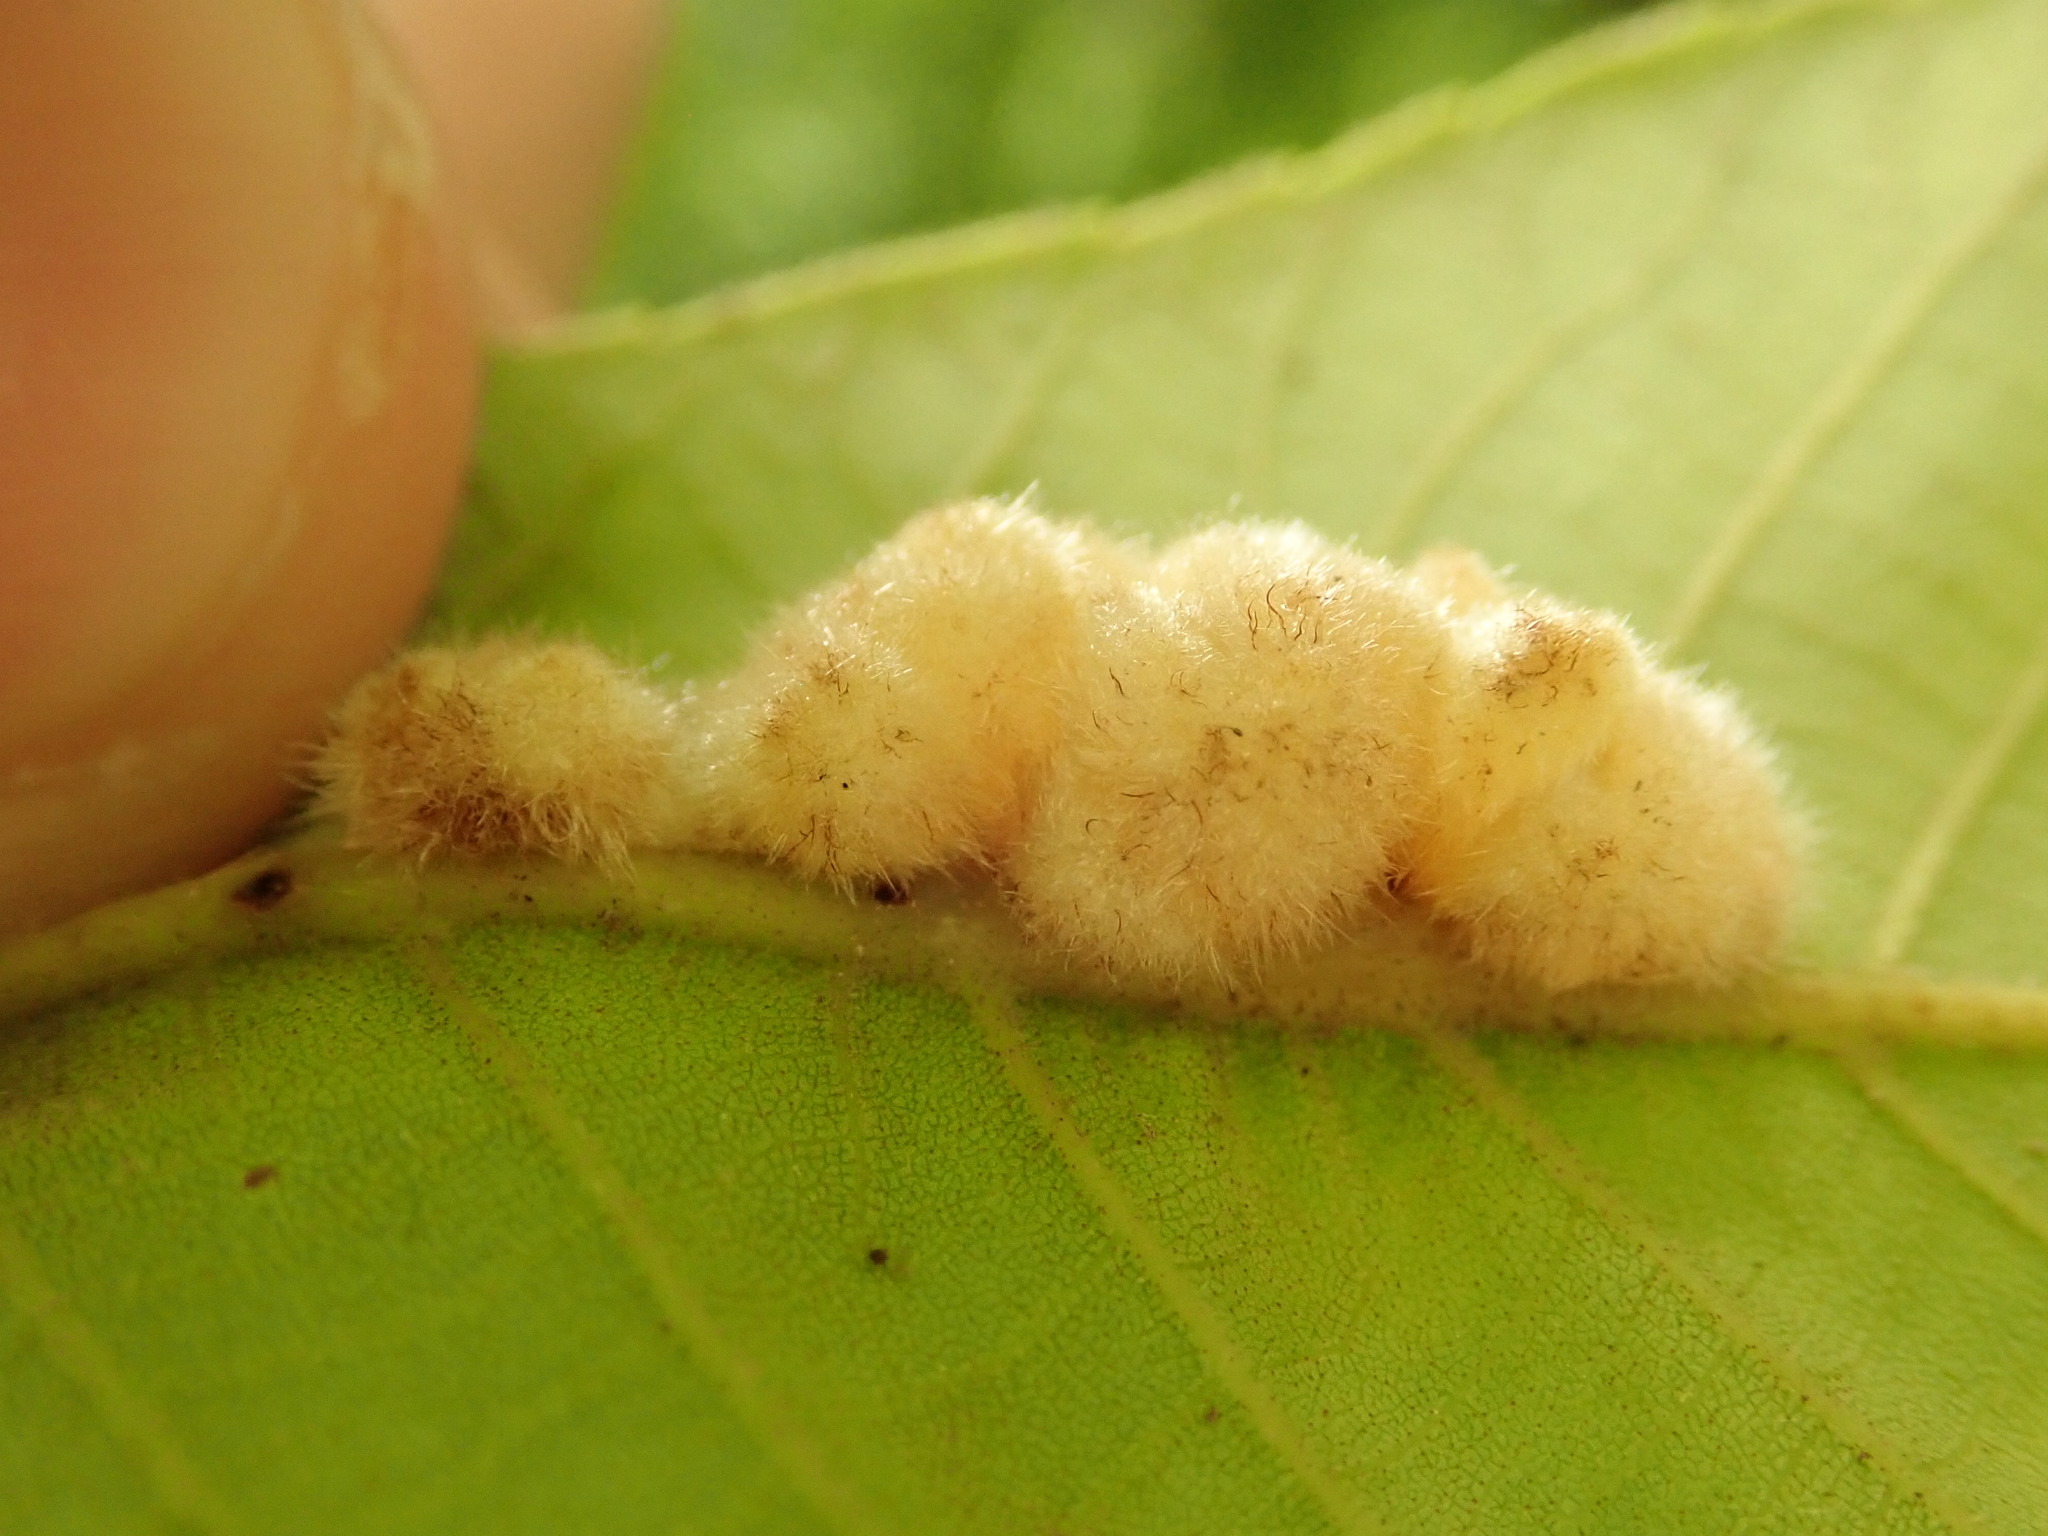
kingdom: Animalia
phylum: Arthropoda
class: Insecta
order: Diptera
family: Cecidomyiidae
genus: Caryomyia
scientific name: Caryomyia aggregata
